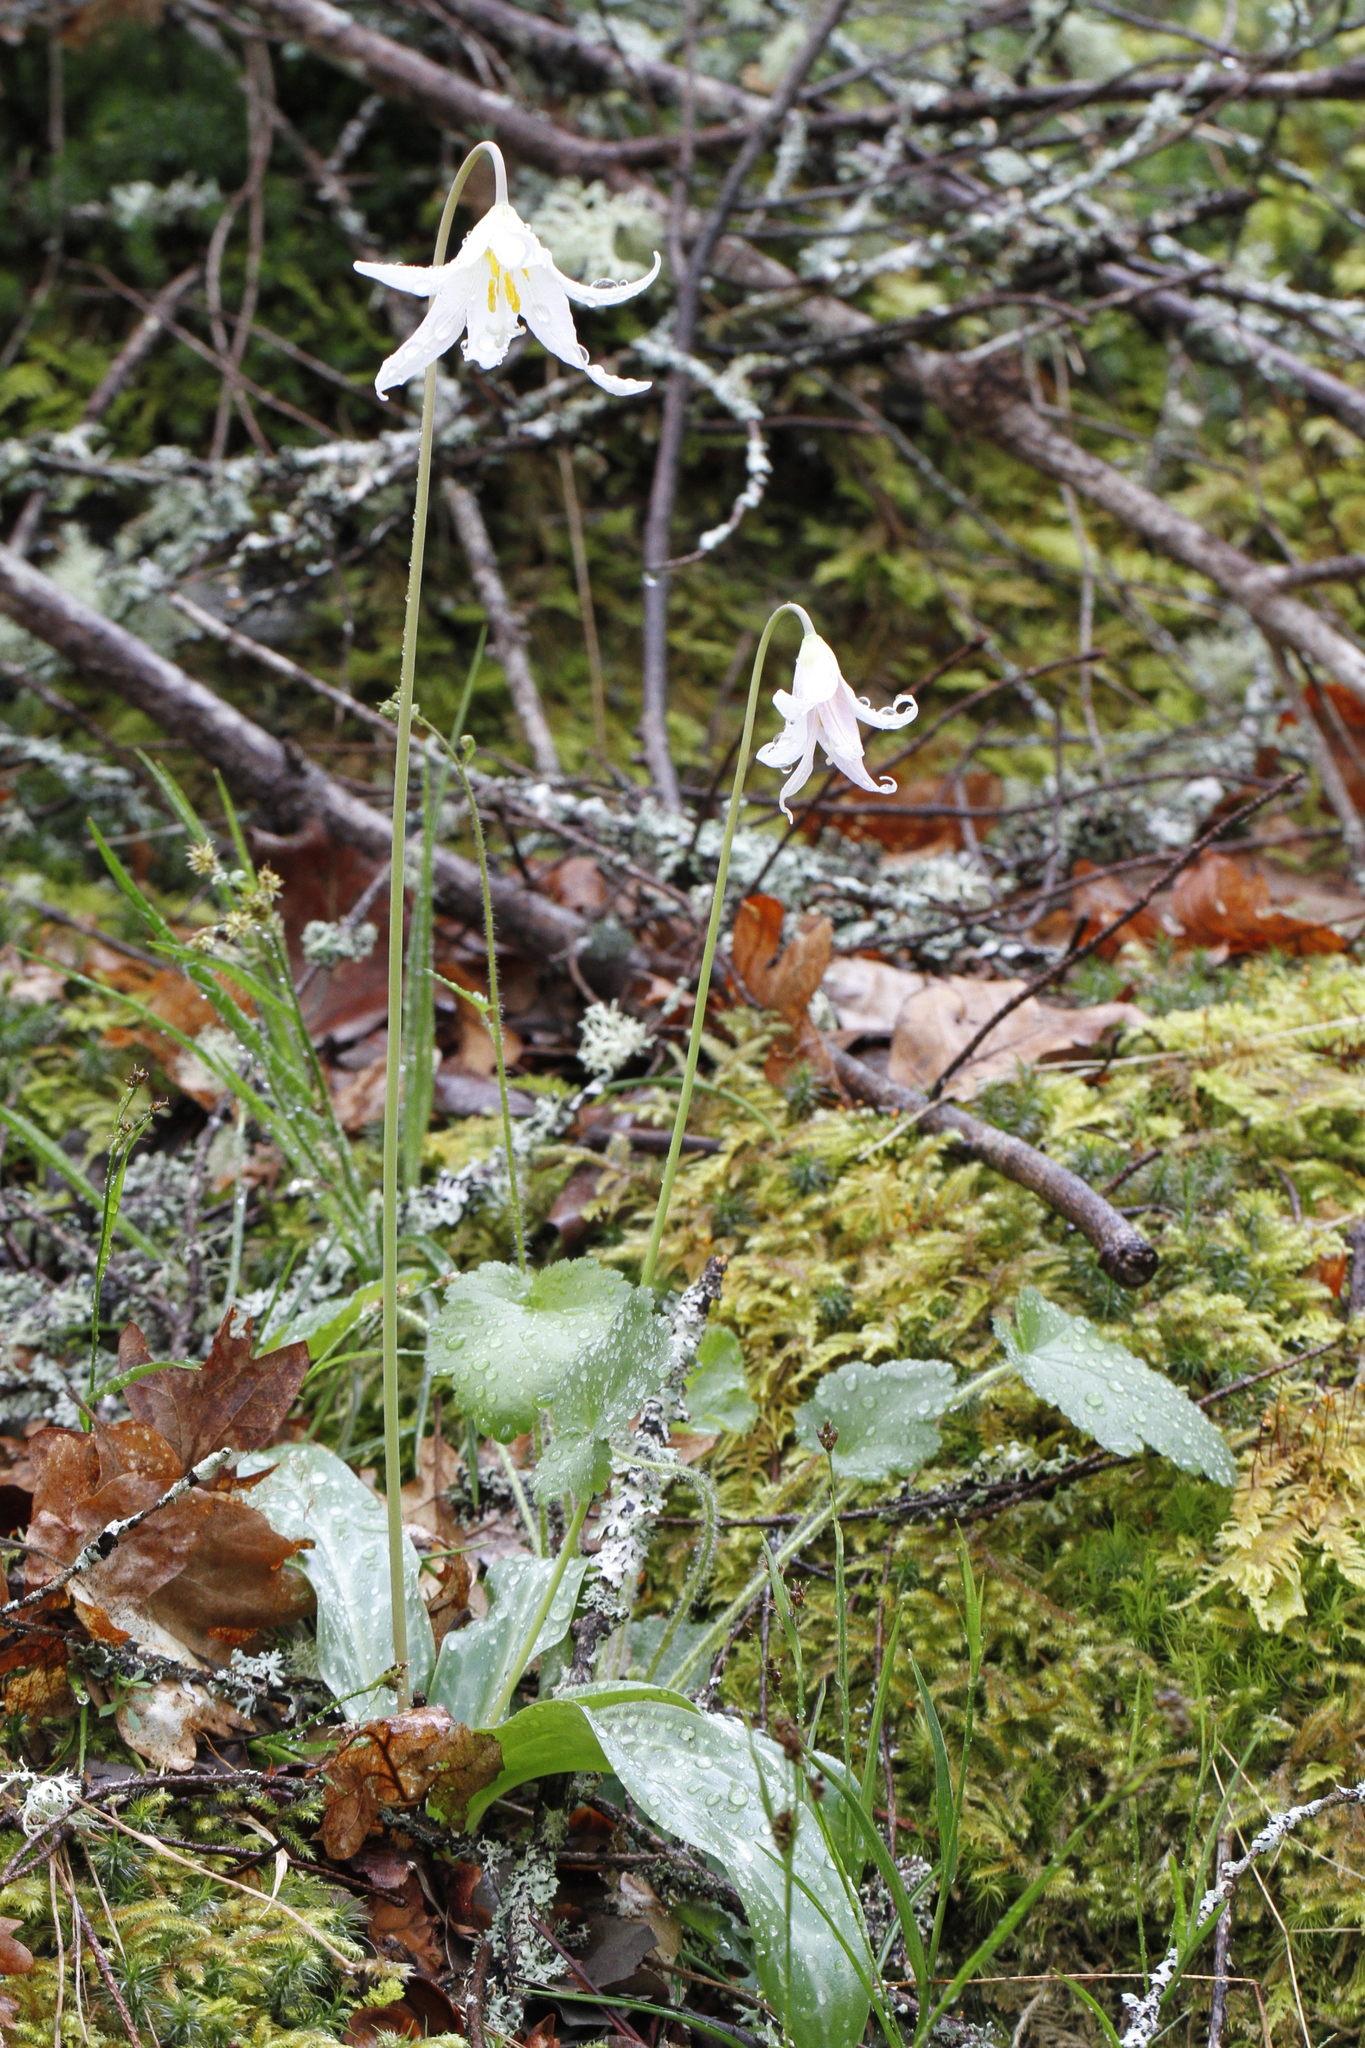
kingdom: Plantae
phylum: Tracheophyta
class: Liliopsida
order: Liliales
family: Liliaceae
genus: Erythronium
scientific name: Erythronium oregonum
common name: Giant adder's-tongue
